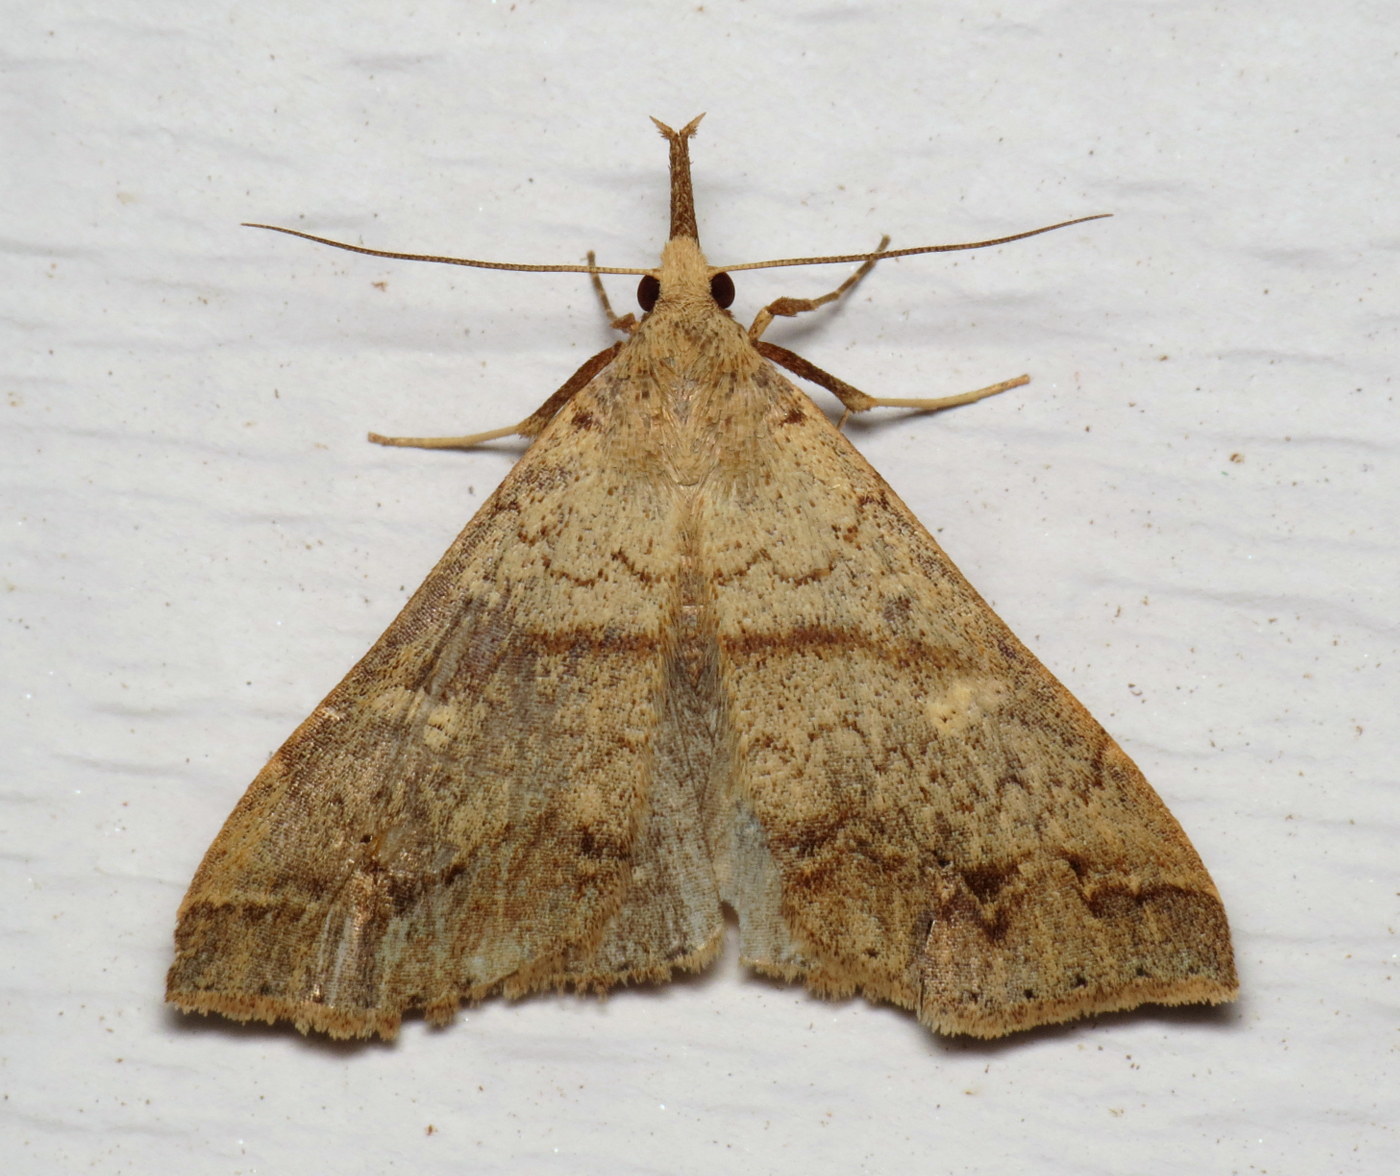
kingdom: Animalia
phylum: Arthropoda
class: Insecta
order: Lepidoptera
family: Erebidae
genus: Renia
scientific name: Renia discoloralis
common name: Discolored renia moth
